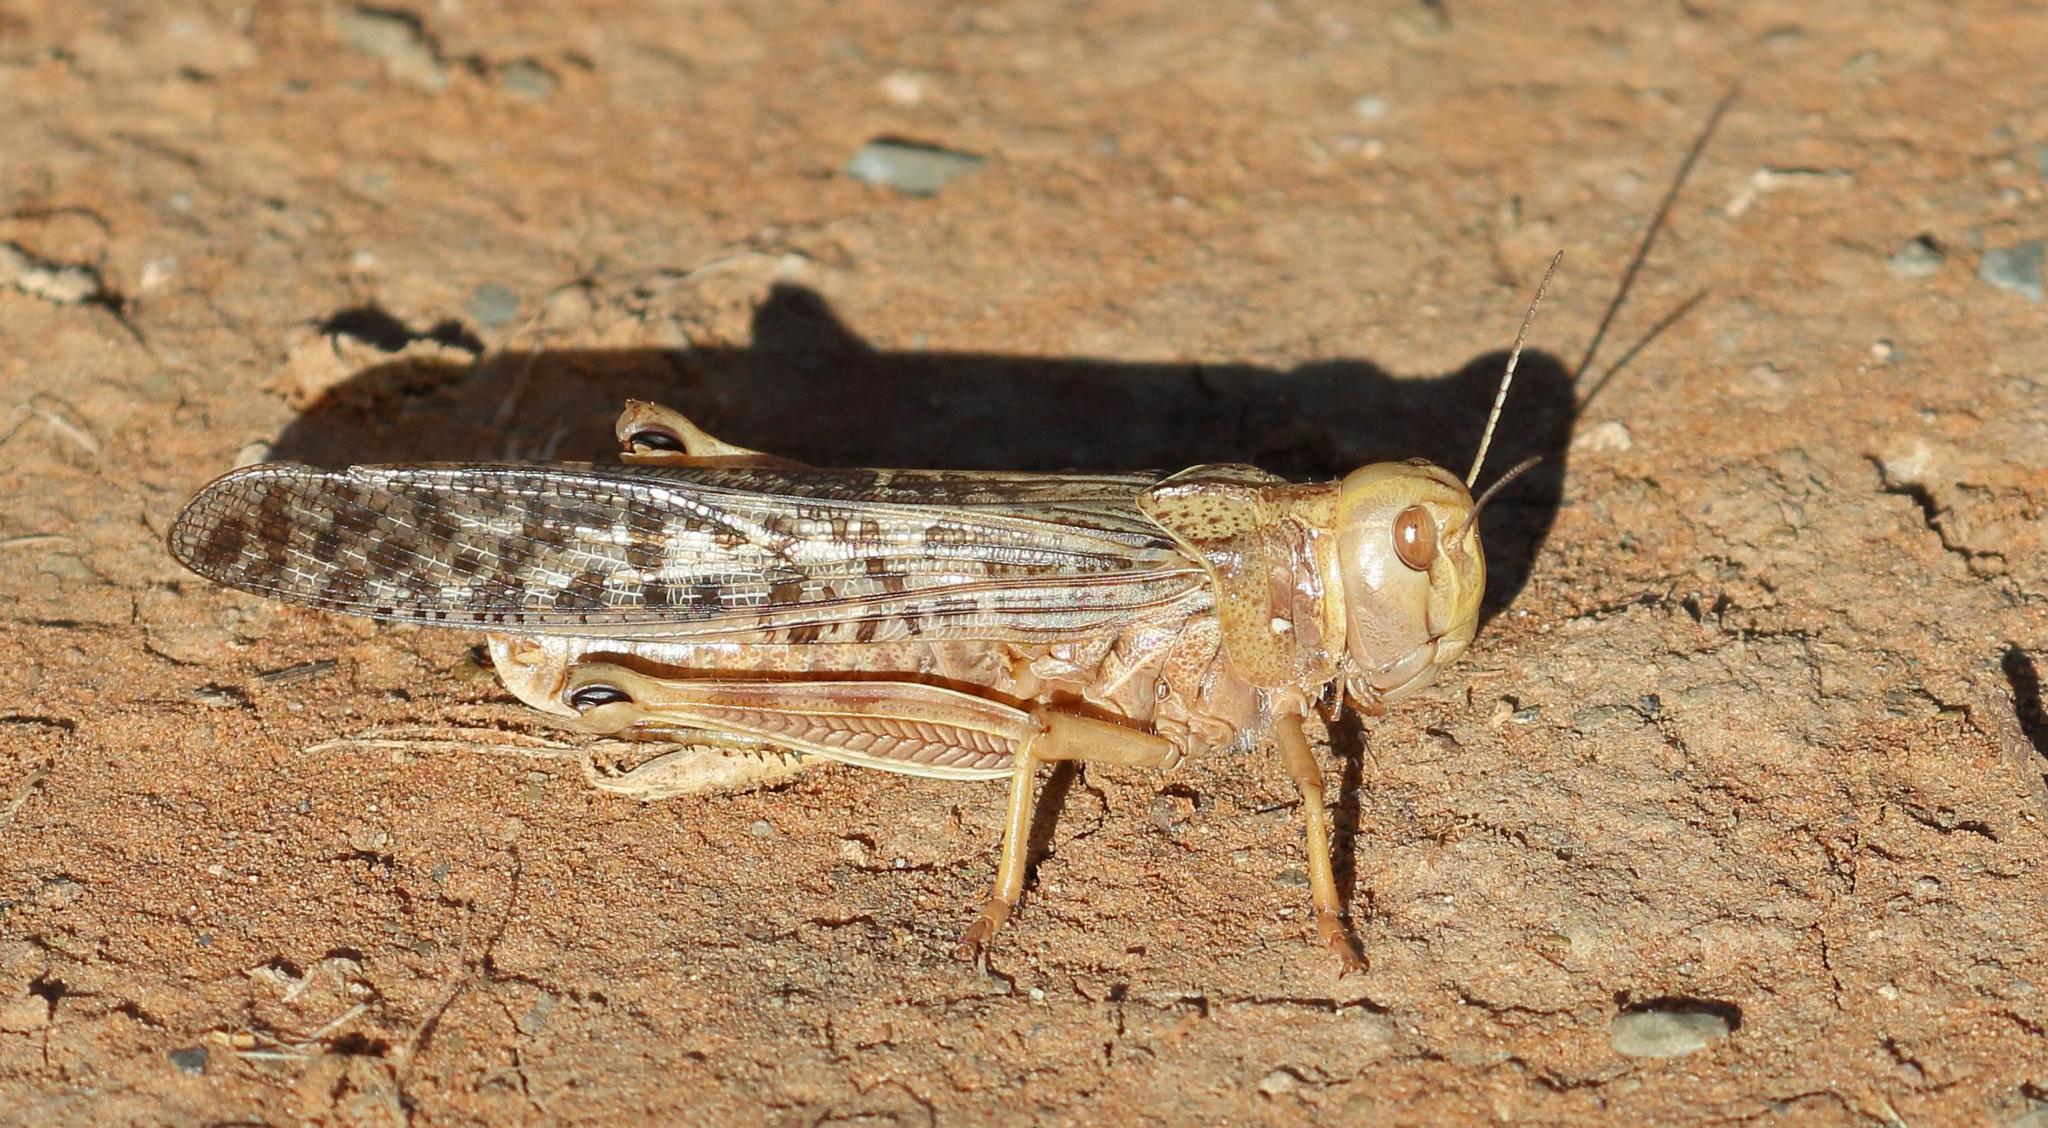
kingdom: Animalia
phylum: Arthropoda
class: Insecta
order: Orthoptera
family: Acrididae
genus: Locustana
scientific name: Locustana pardalina
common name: Brown locust
